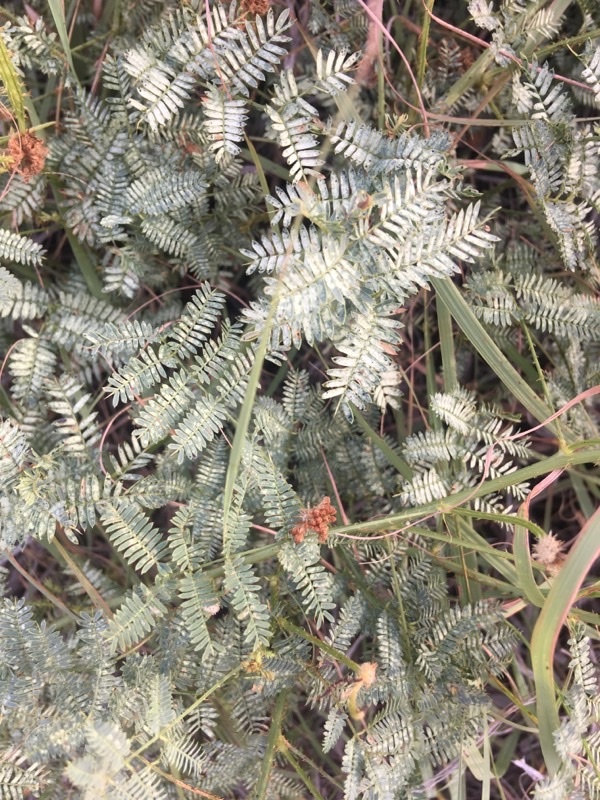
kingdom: Plantae
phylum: Tracheophyta
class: Magnoliopsida
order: Fabales
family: Fabaceae
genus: Gleditsia
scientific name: Gleditsia triacanthos
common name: Common honeylocust
